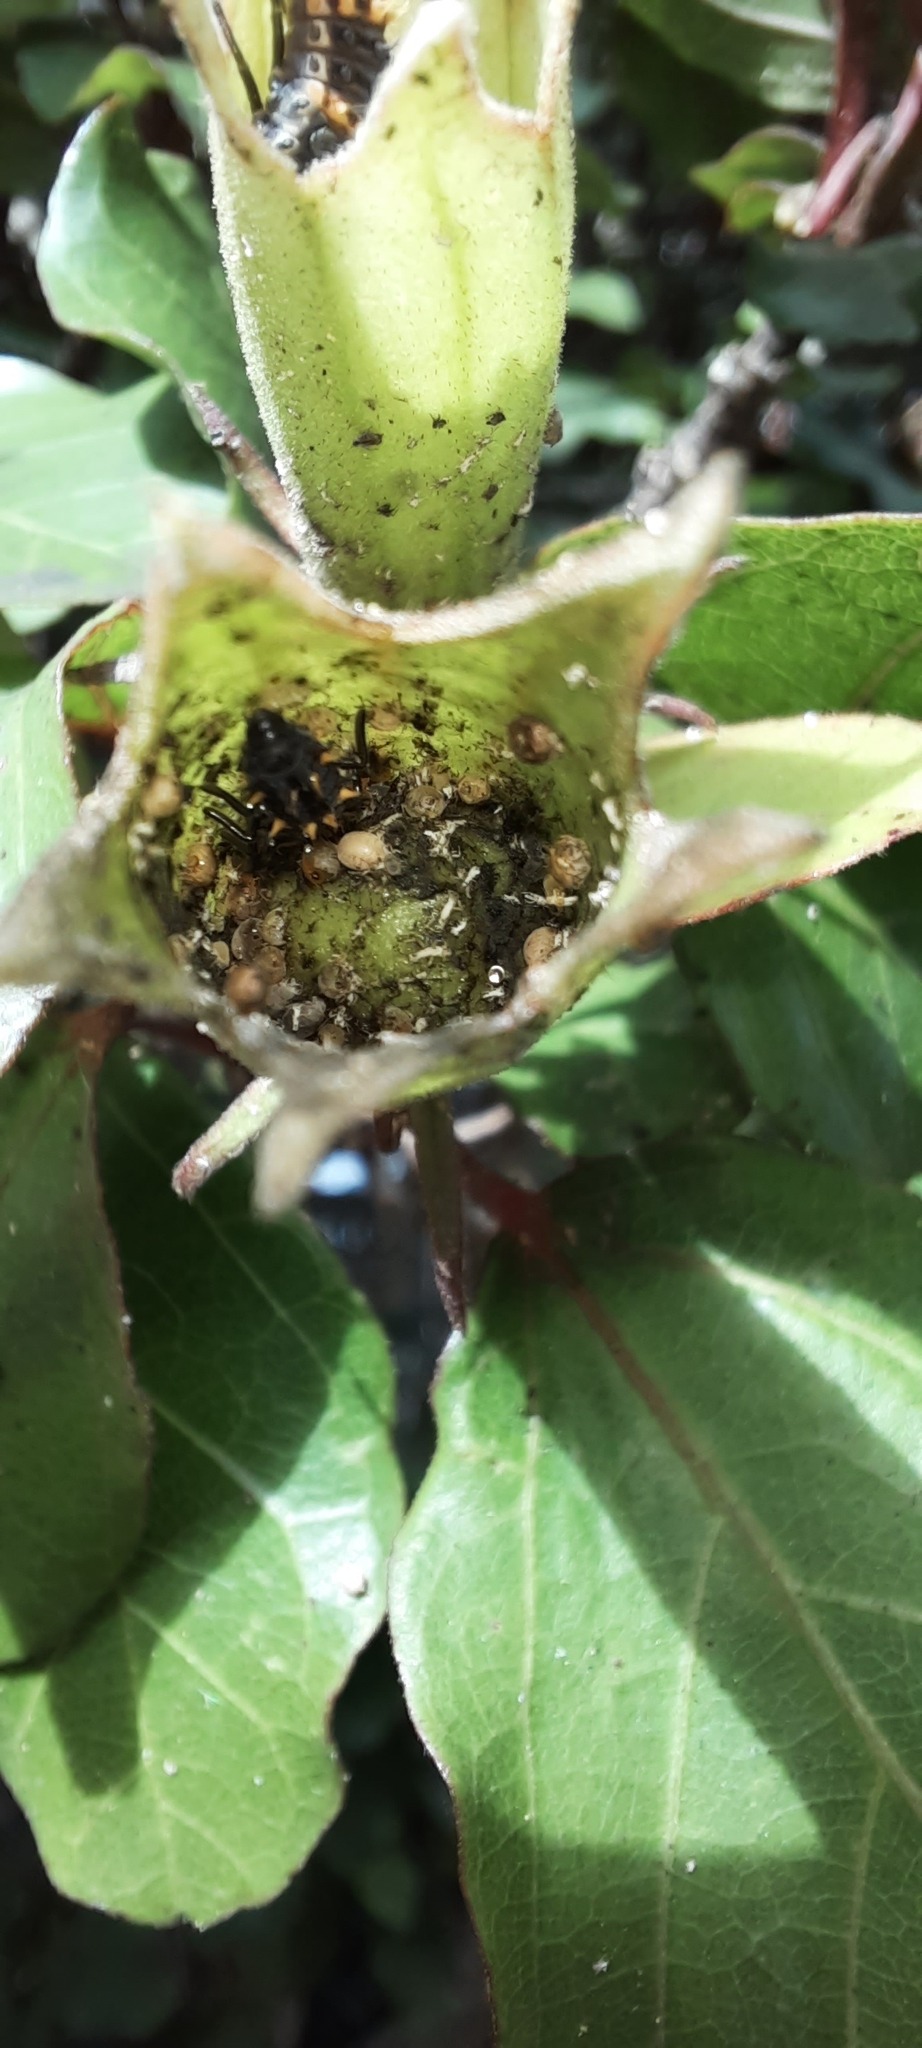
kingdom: Animalia
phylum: Arthropoda
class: Insecta
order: Coleoptera
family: Coccinellidae
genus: Harmonia
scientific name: Harmonia conformis
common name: Common spotted ladybird beetle
